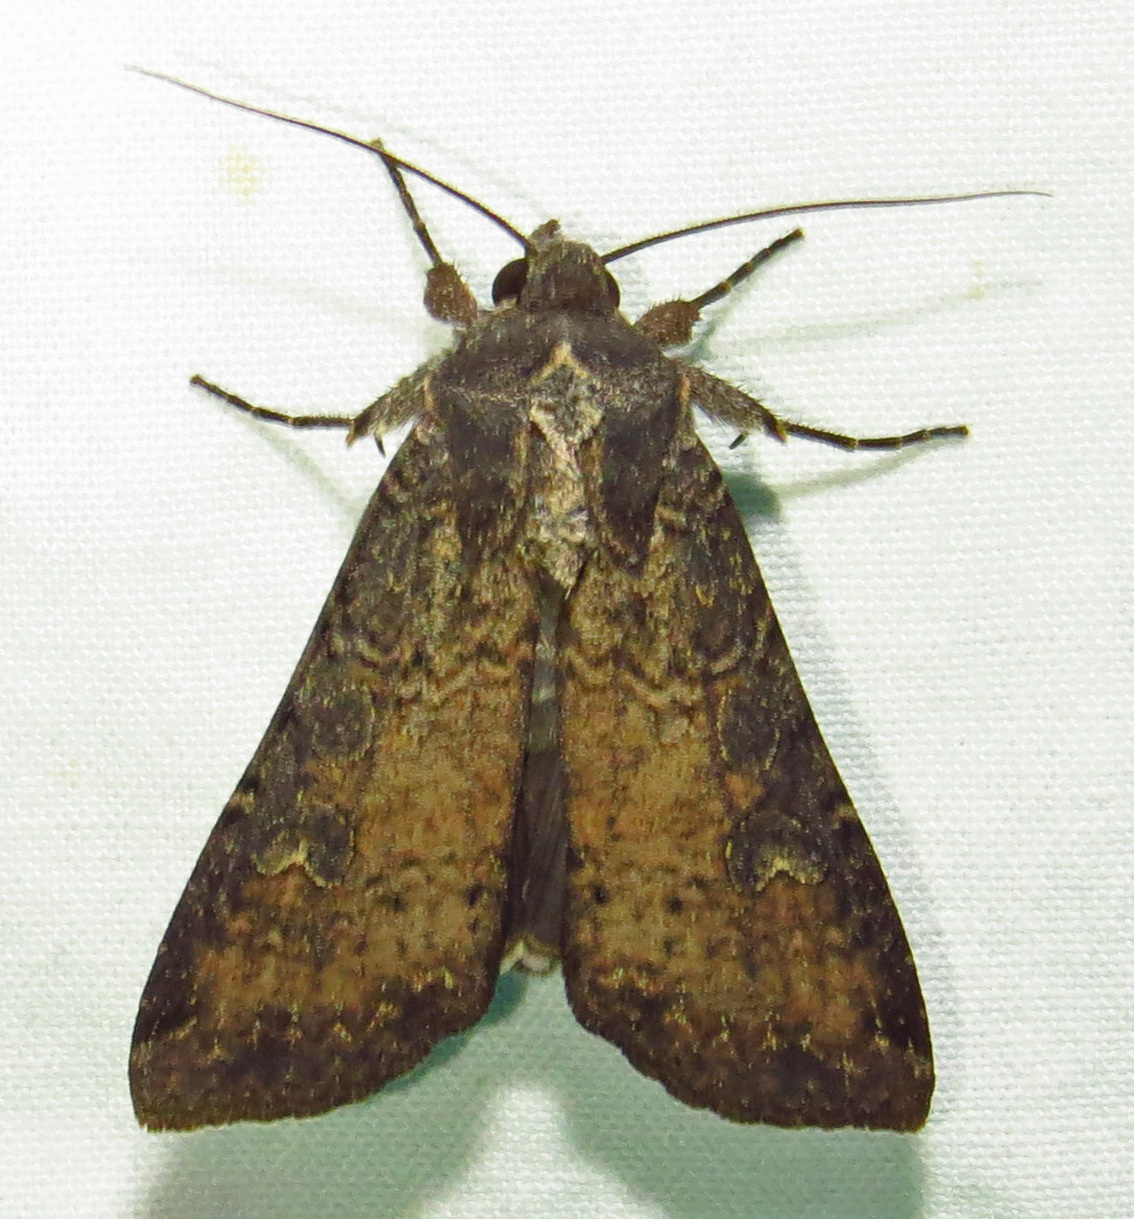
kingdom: Animalia
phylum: Arthropoda
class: Insecta
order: Lepidoptera
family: Noctuidae
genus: Peridroma
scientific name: Peridroma saucia
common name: Pearly underwing
